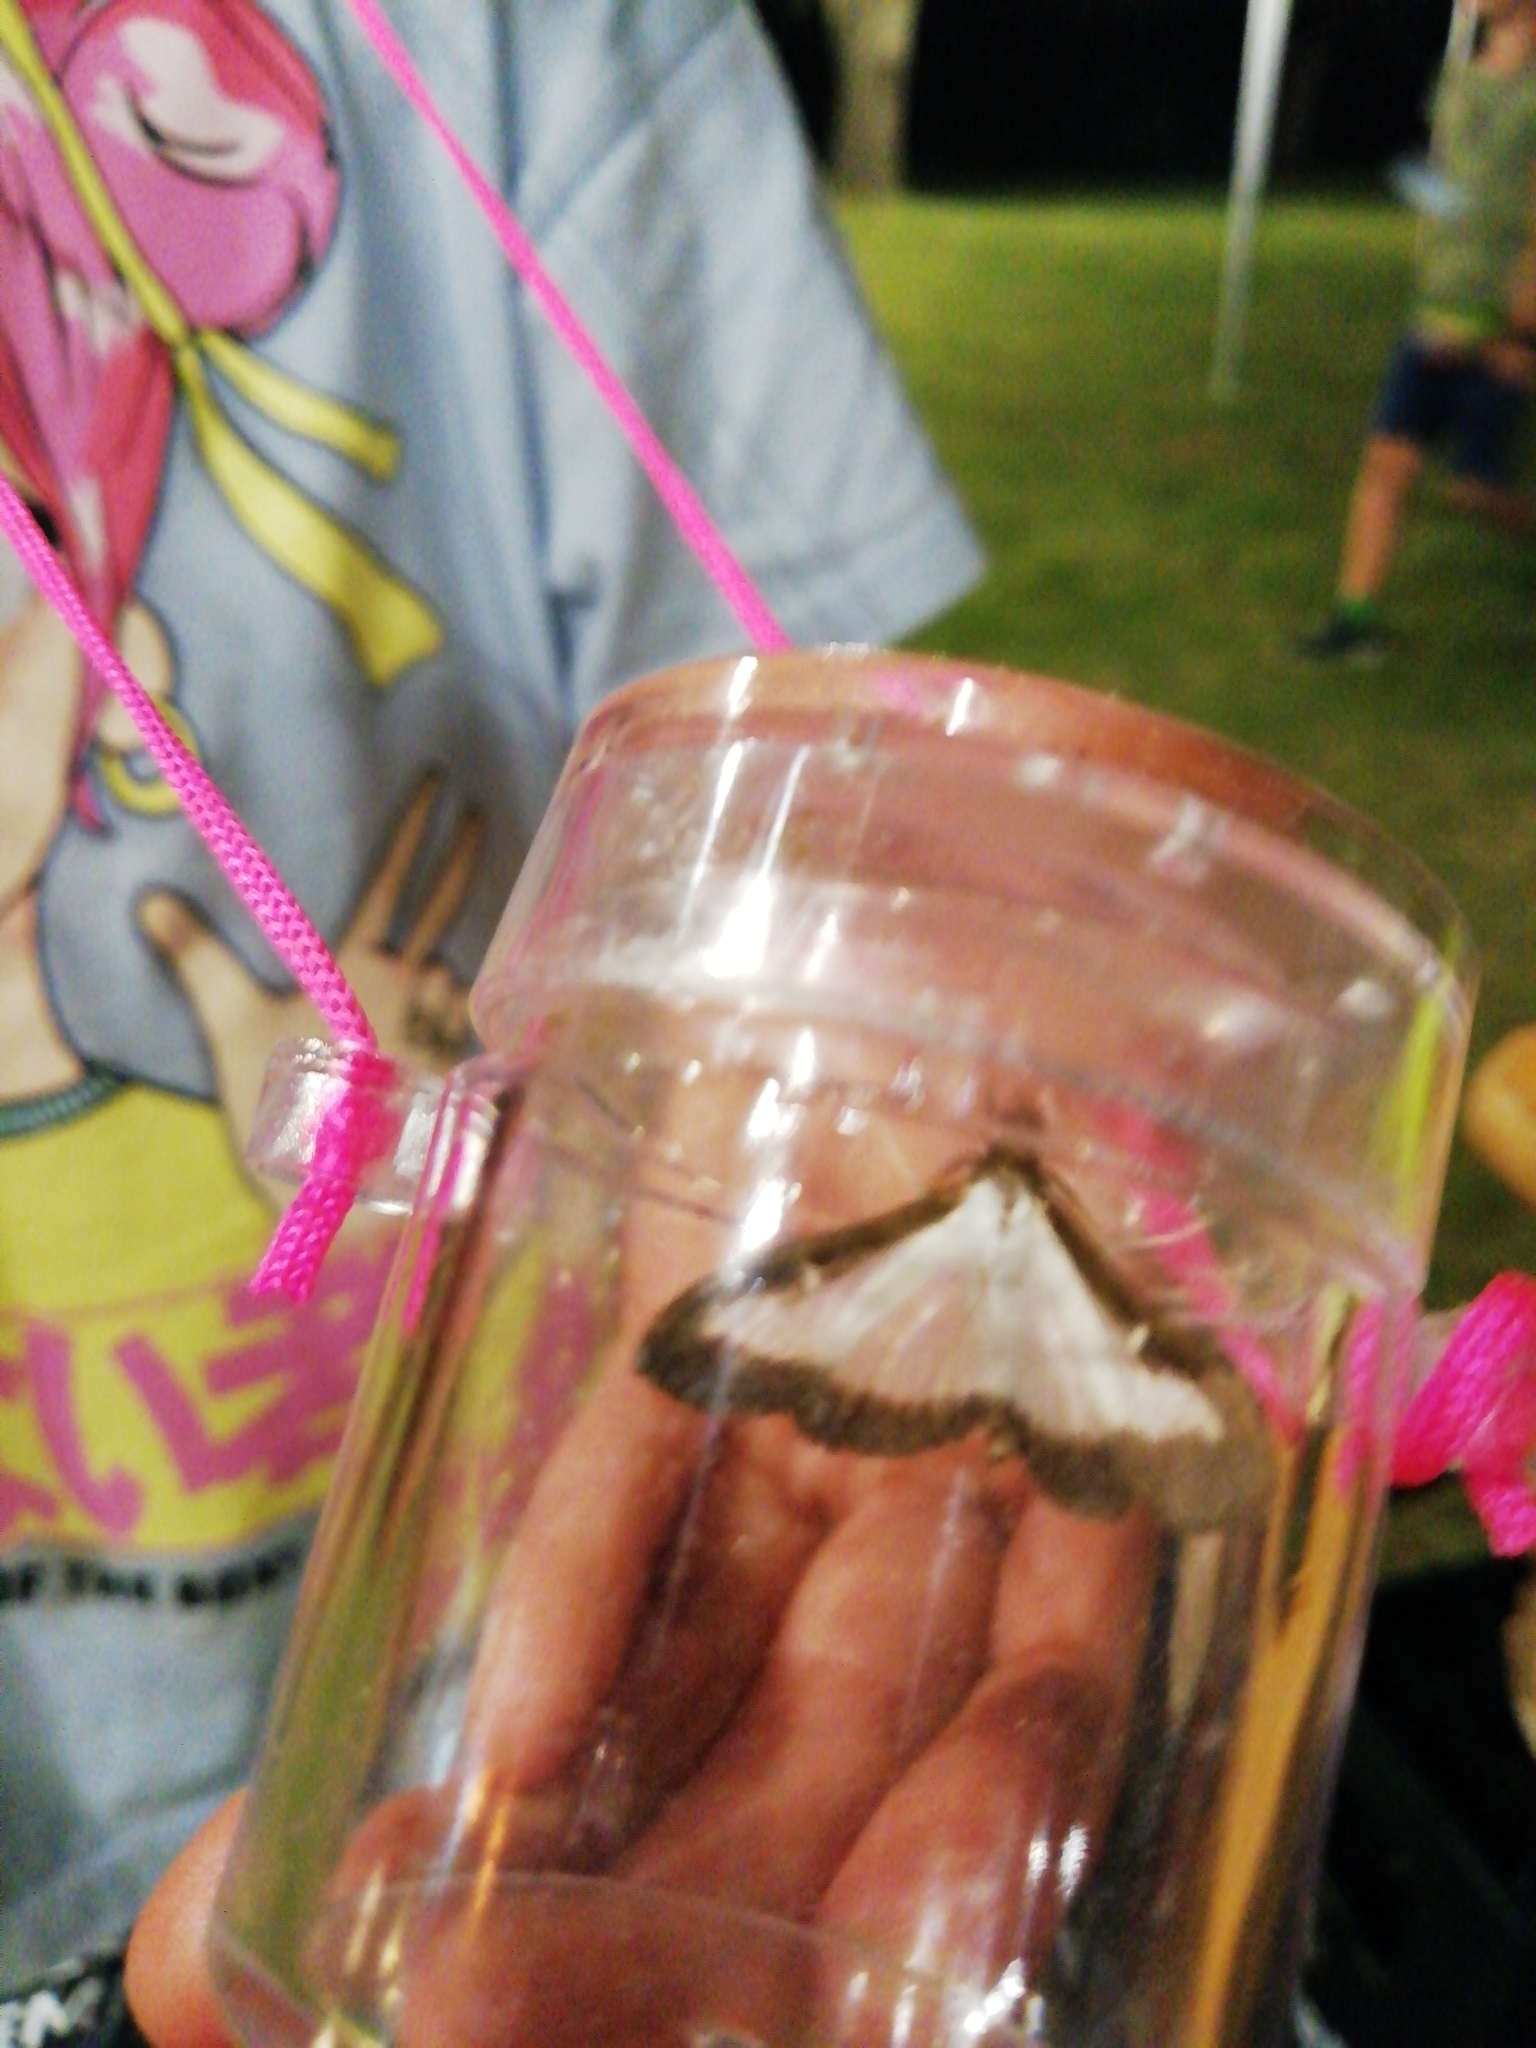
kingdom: Animalia
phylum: Arthropoda
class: Insecta
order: Lepidoptera
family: Crambidae
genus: Cydalima
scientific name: Cydalima perspectalis
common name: Box tree moth
